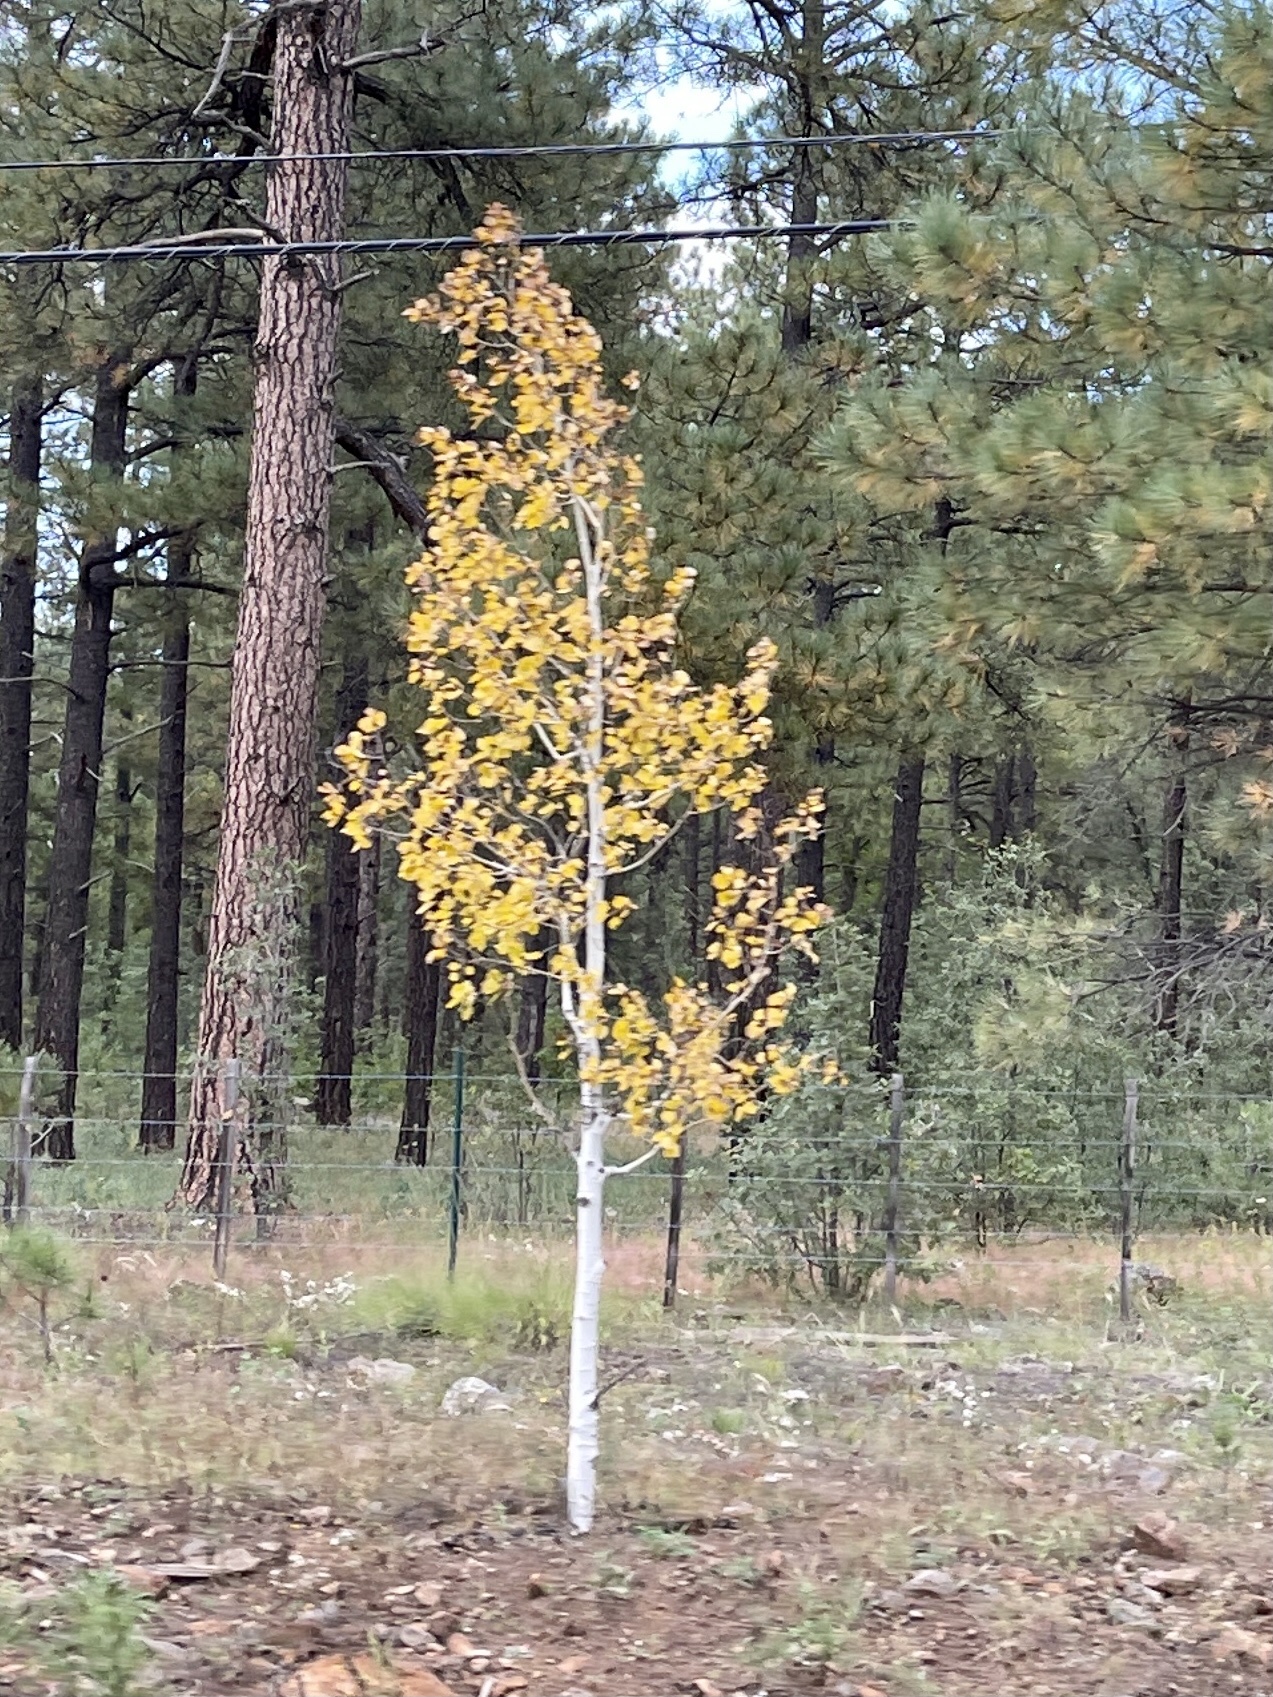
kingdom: Plantae
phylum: Tracheophyta
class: Magnoliopsida
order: Malpighiales
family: Salicaceae
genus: Populus
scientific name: Populus tremuloides
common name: Quaking aspen
